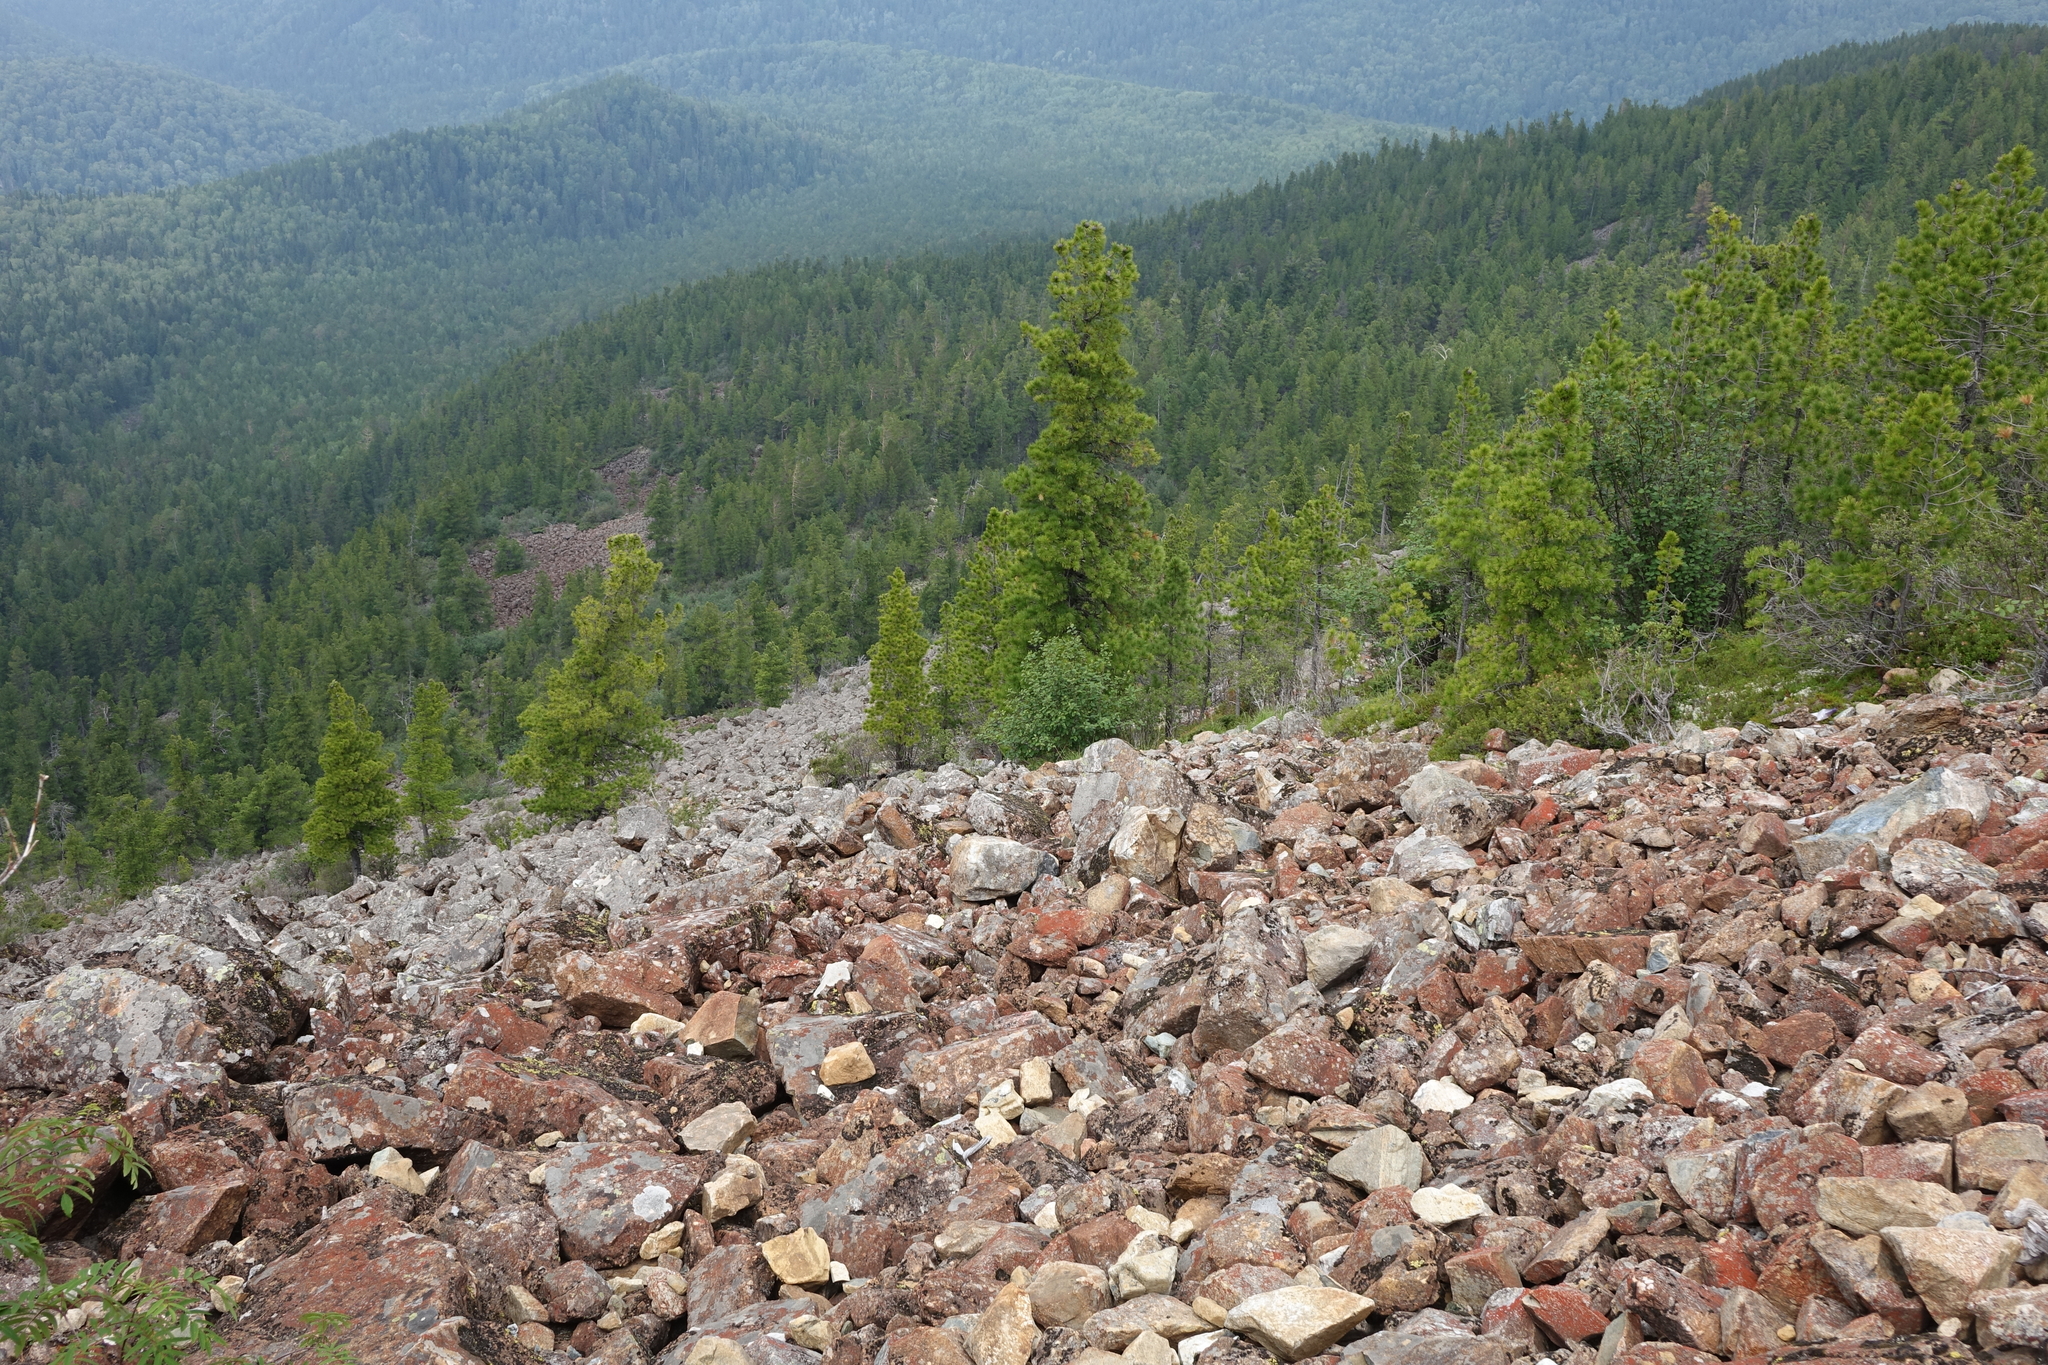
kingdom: Plantae
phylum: Tracheophyta
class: Pinopsida
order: Pinales
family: Pinaceae
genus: Pinus
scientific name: Pinus sibirica
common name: Siberian pine
